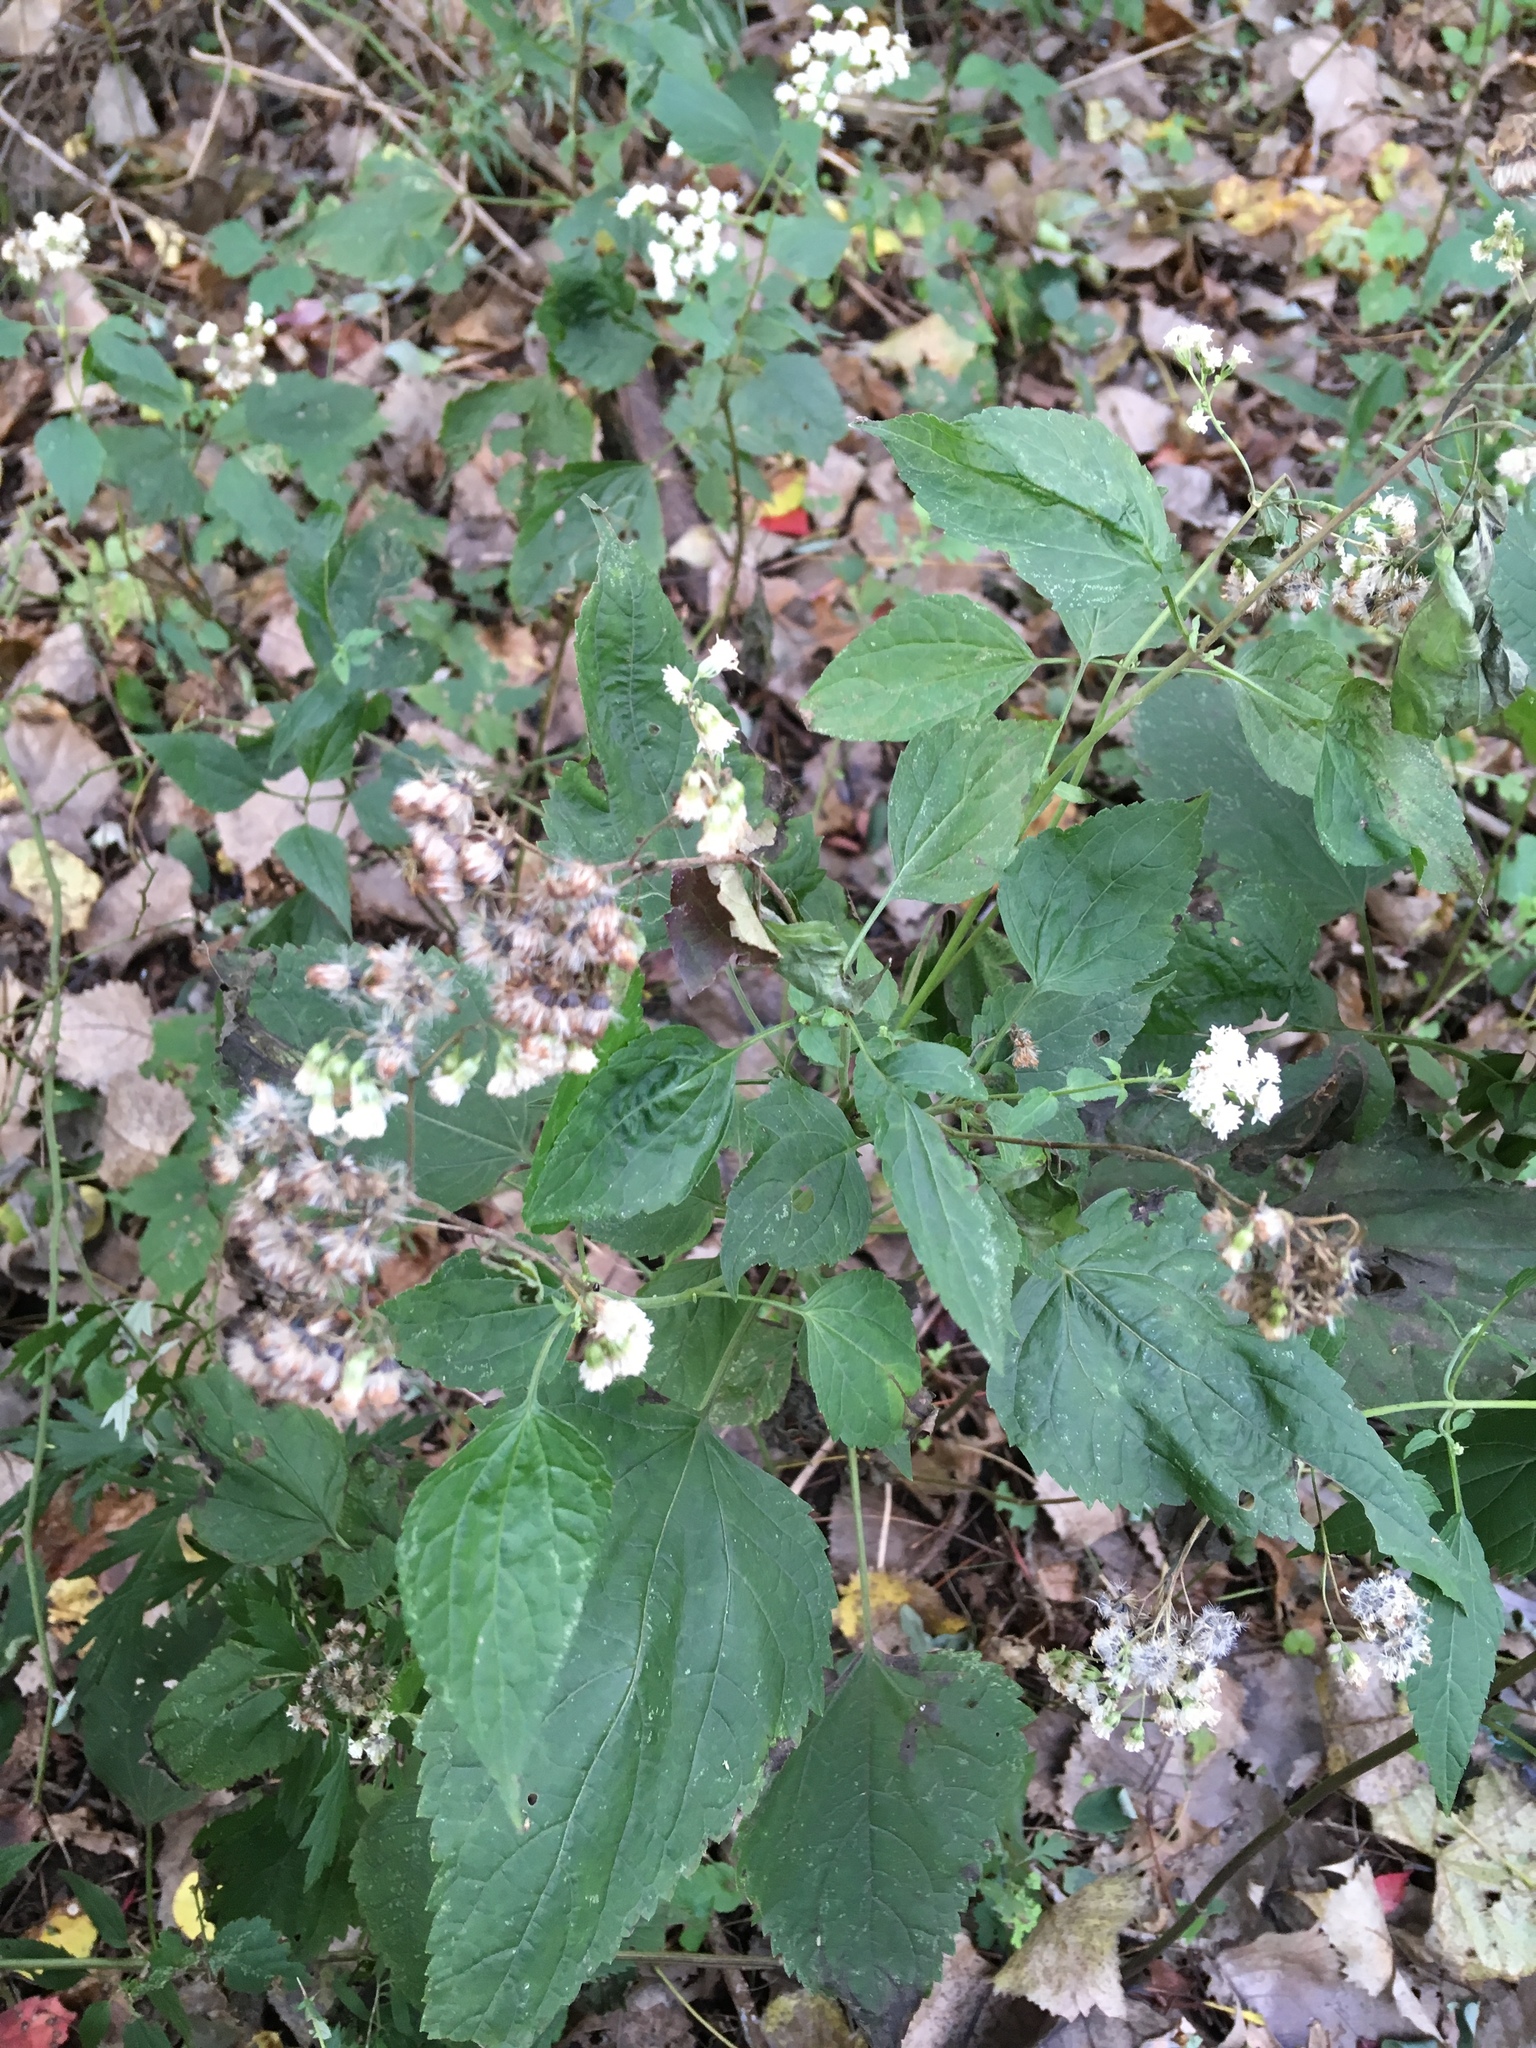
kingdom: Plantae
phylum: Tracheophyta
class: Magnoliopsida
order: Asterales
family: Asteraceae
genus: Ageratina
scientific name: Ageratina altissima
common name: White snakeroot
